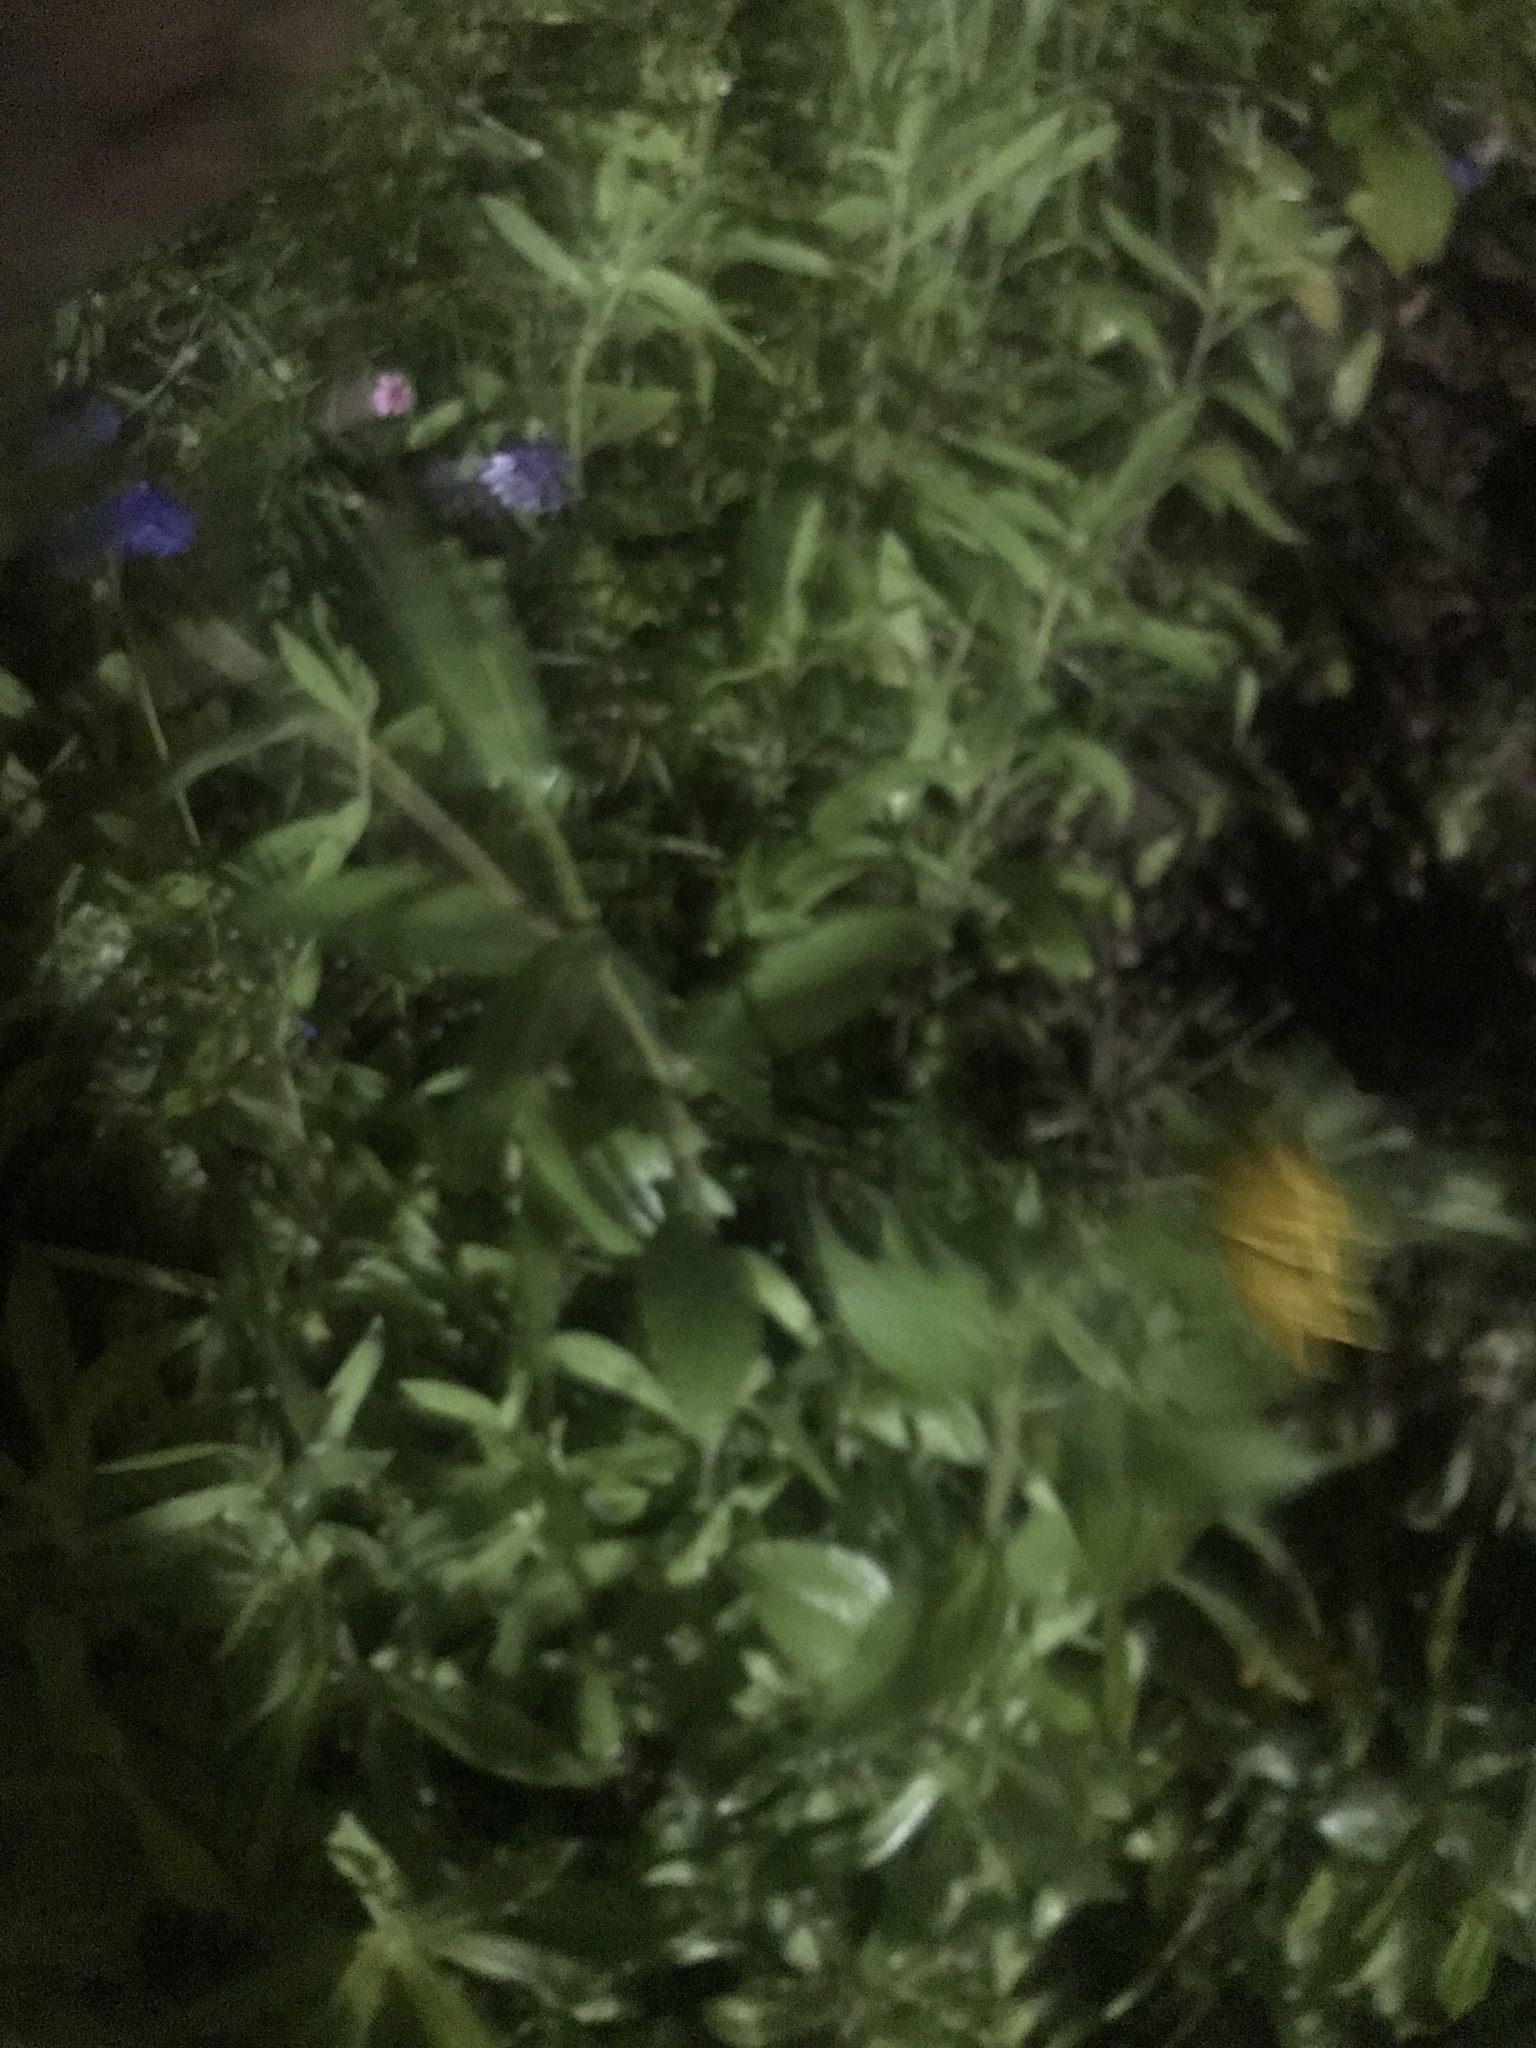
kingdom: Plantae
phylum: Tracheophyta
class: Magnoliopsida
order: Asterales
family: Asteraceae
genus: Rudbeckia
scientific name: Rudbeckia hirta
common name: Black-eyed-susan
